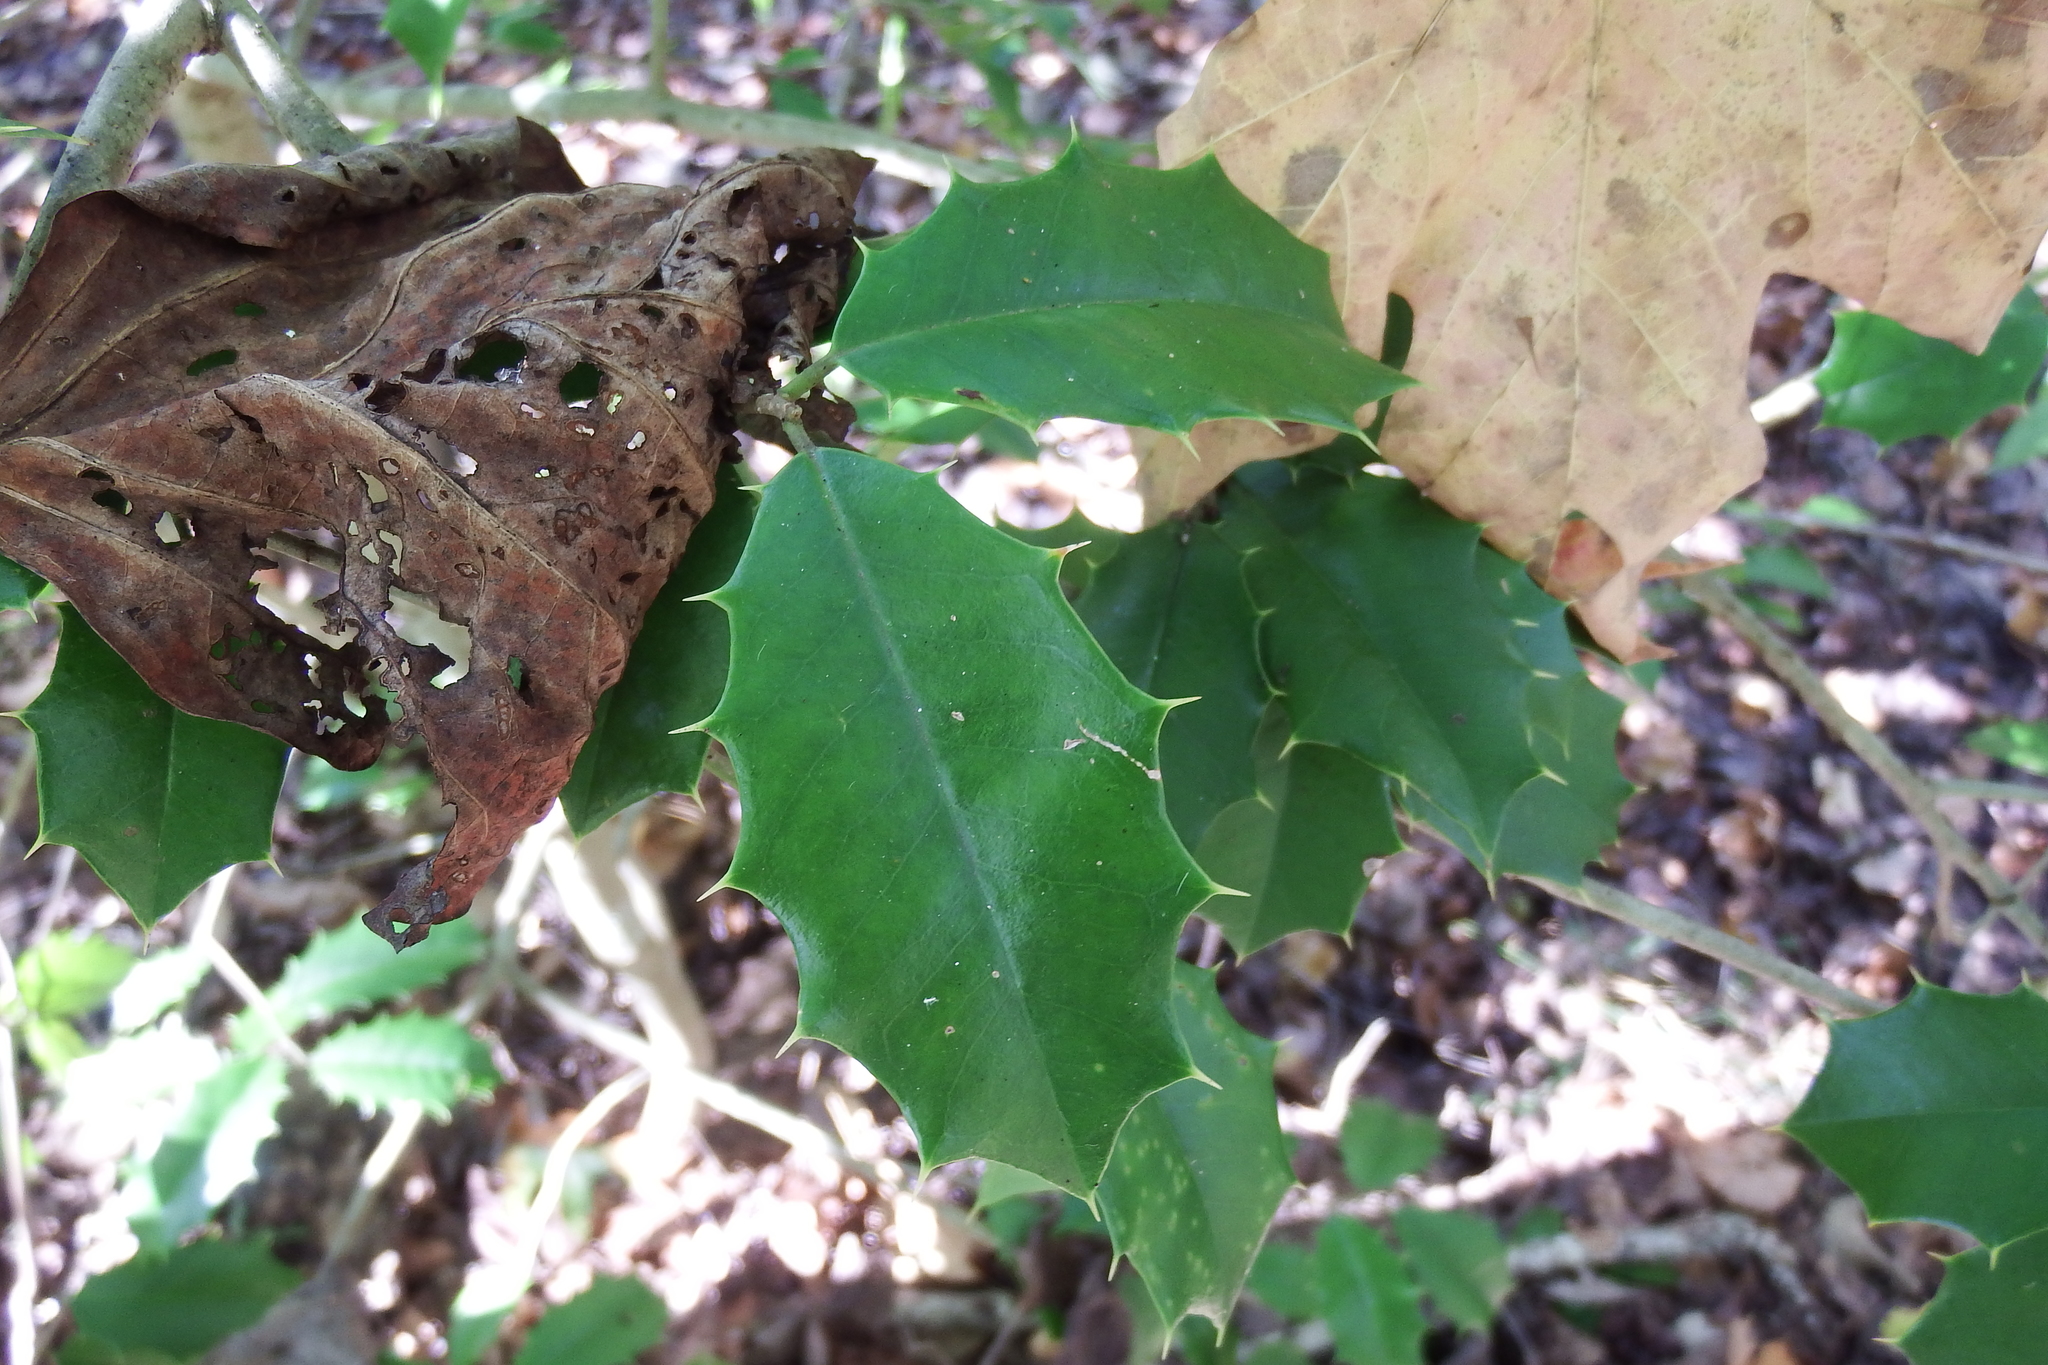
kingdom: Plantae
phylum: Tracheophyta
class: Magnoliopsida
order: Aquifoliales
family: Aquifoliaceae
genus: Ilex
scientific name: Ilex opaca
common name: American holly
